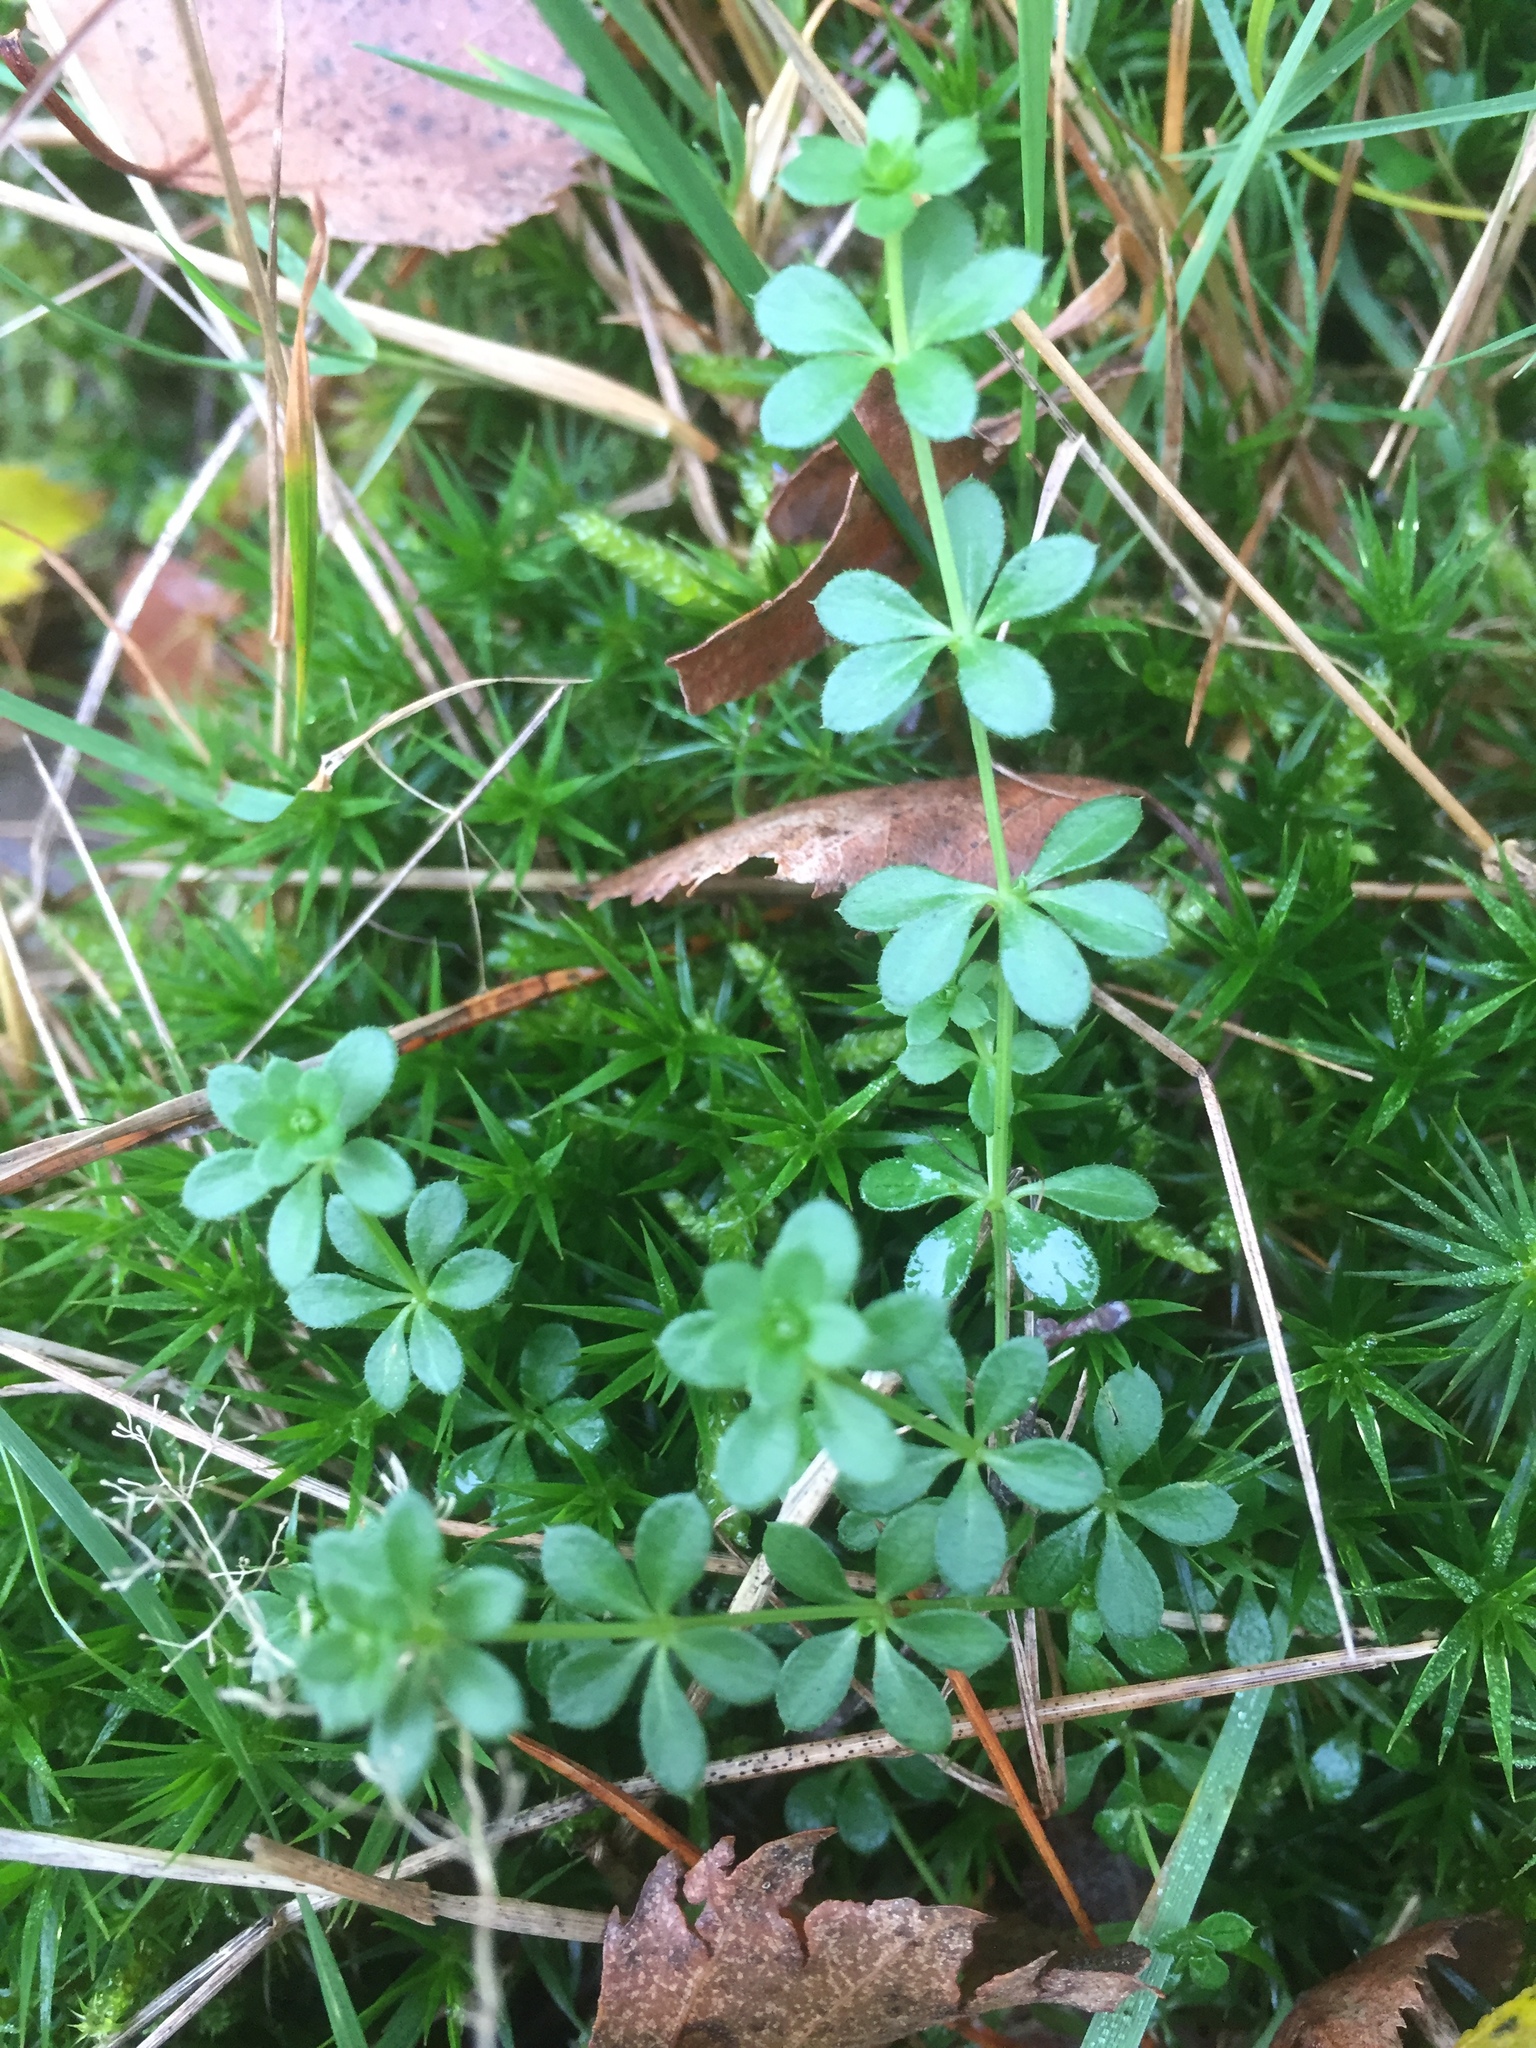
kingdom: Plantae
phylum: Tracheophyta
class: Magnoliopsida
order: Gentianales
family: Rubiaceae
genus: Galium
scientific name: Galium saxatile
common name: Heath bedstraw
